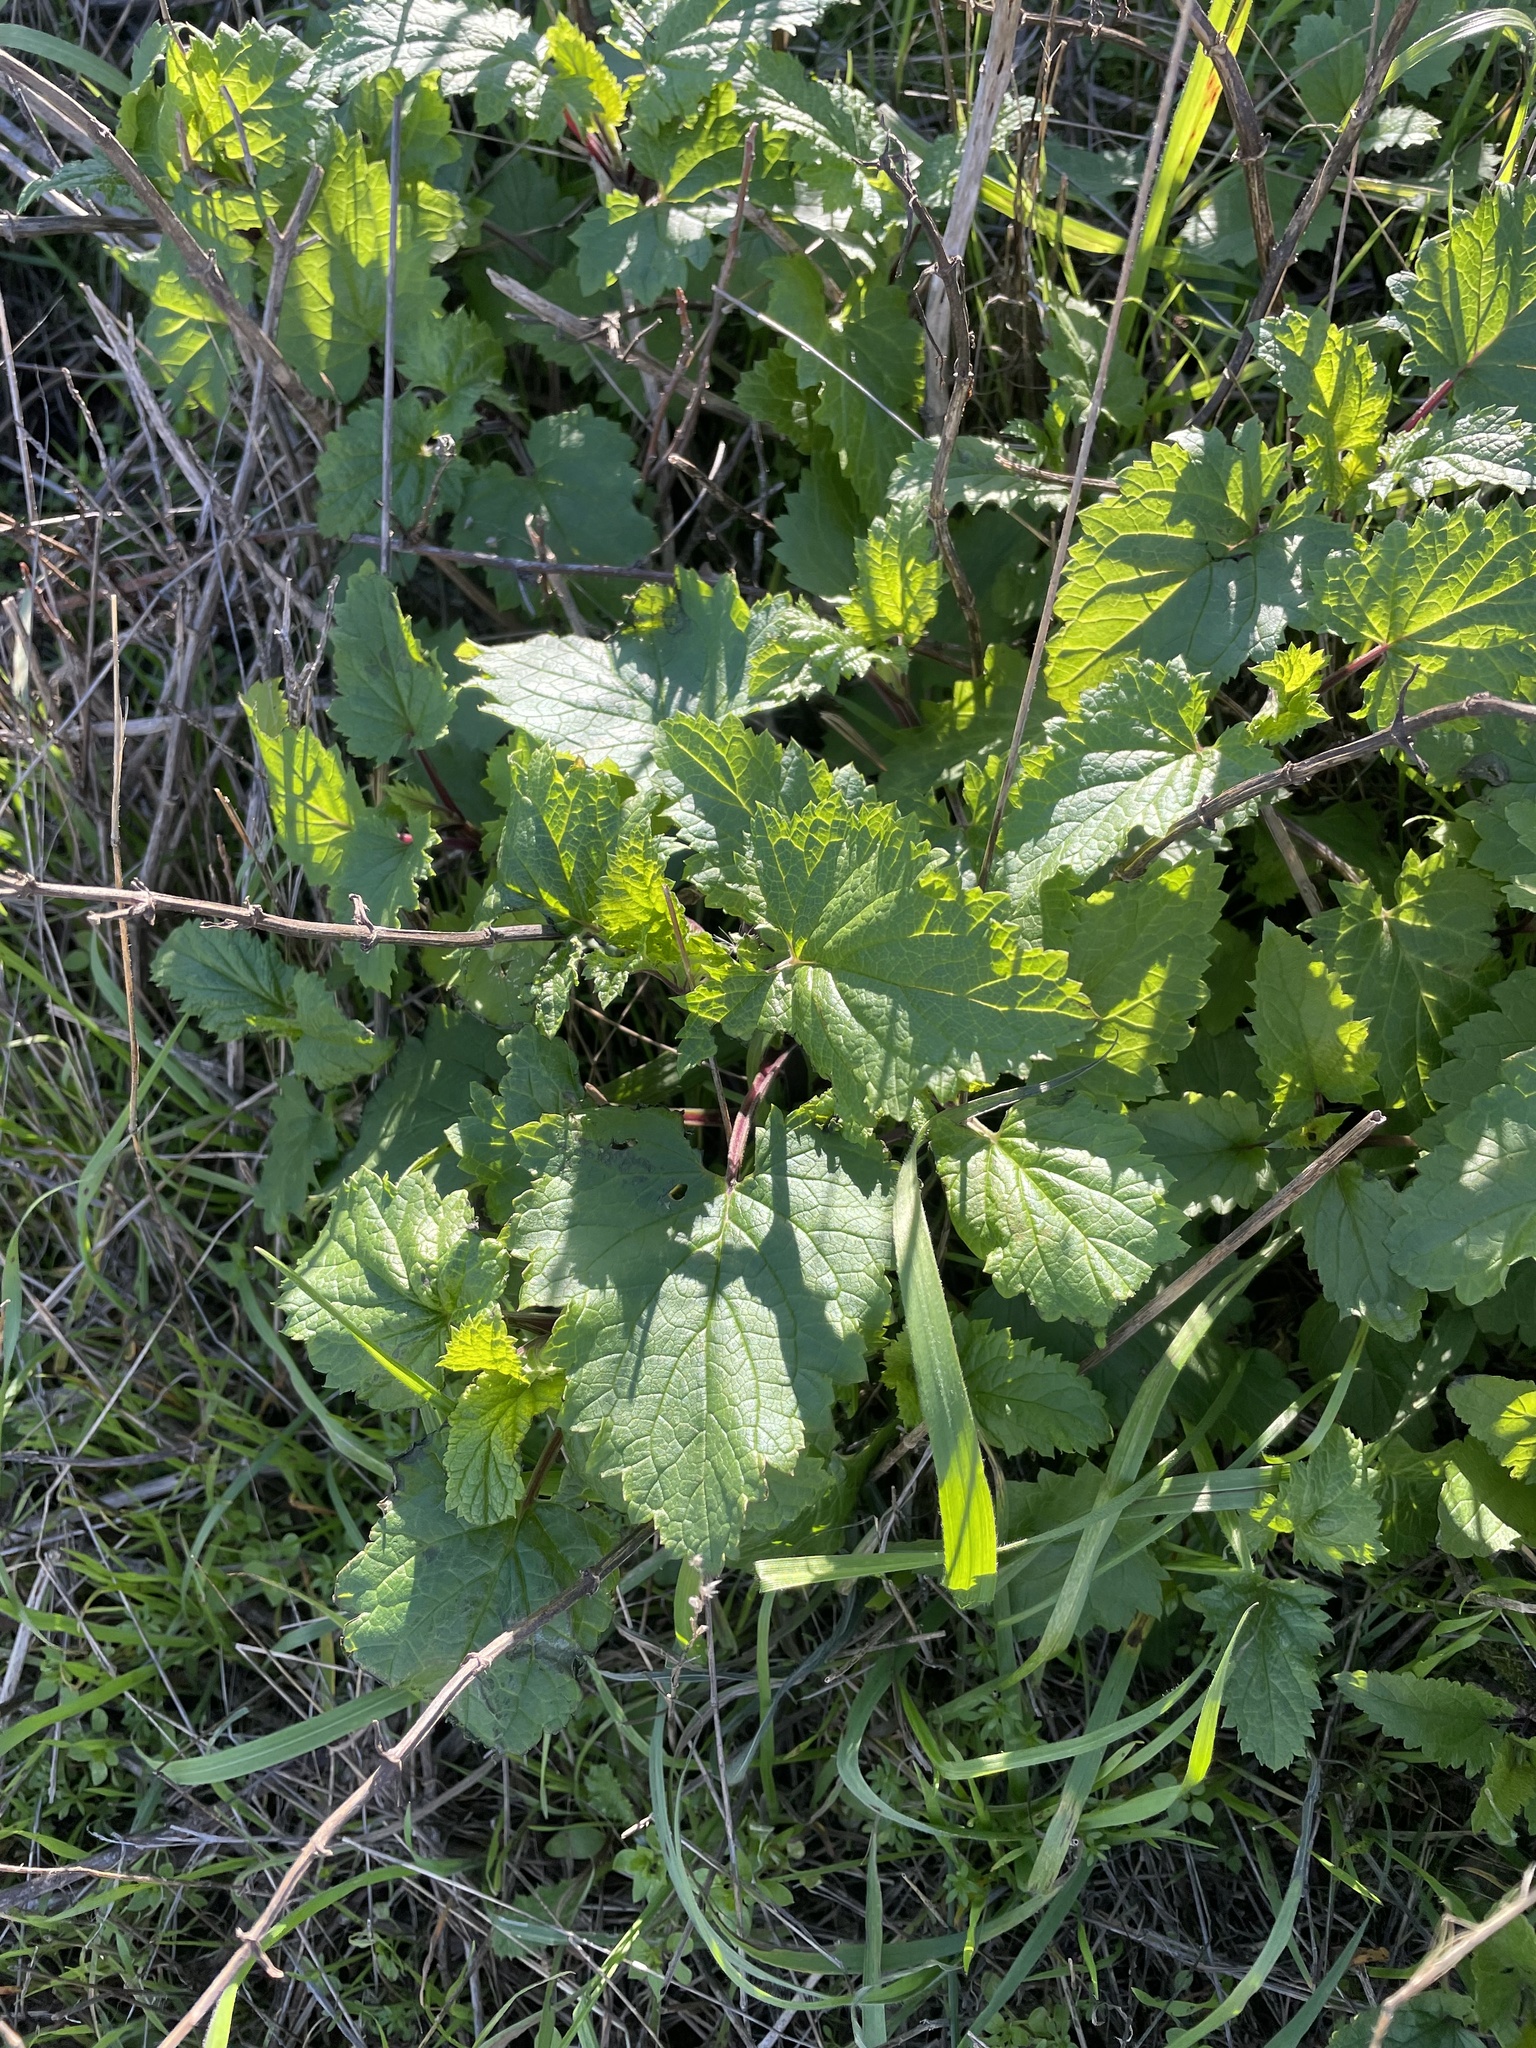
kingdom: Plantae
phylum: Tracheophyta
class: Magnoliopsida
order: Lamiales
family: Scrophulariaceae
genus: Scrophularia
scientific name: Scrophularia californica
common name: California figwort
